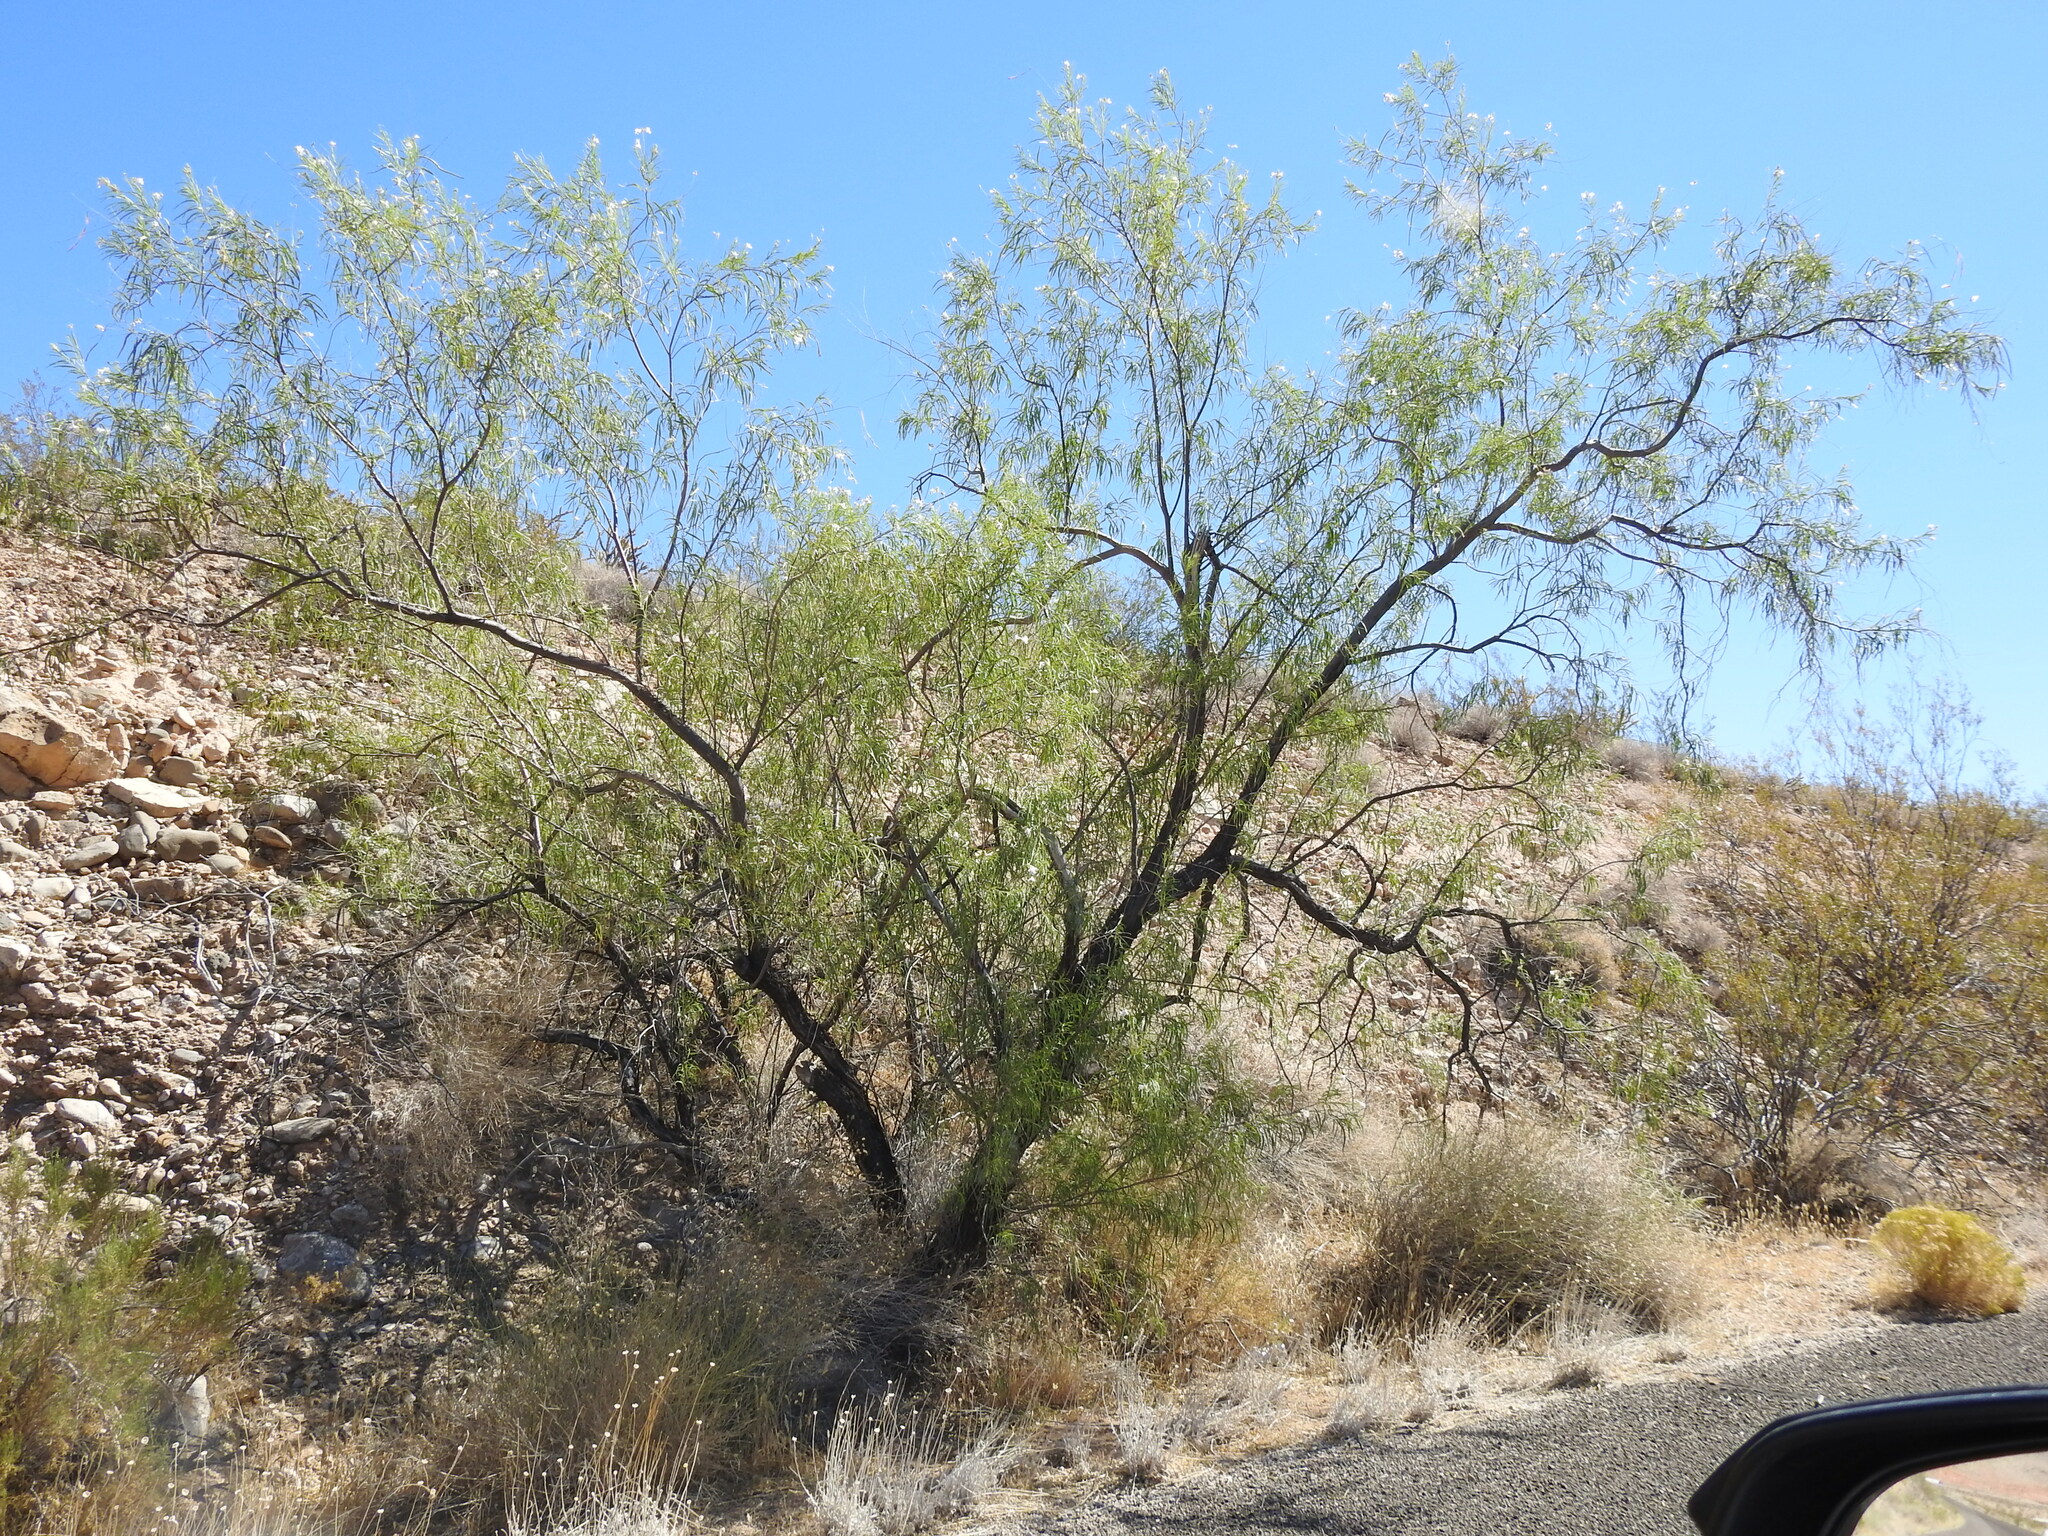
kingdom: Plantae
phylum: Tracheophyta
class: Magnoliopsida
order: Lamiales
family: Bignoniaceae
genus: Chilopsis
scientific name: Chilopsis linearis
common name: Desert-willow
